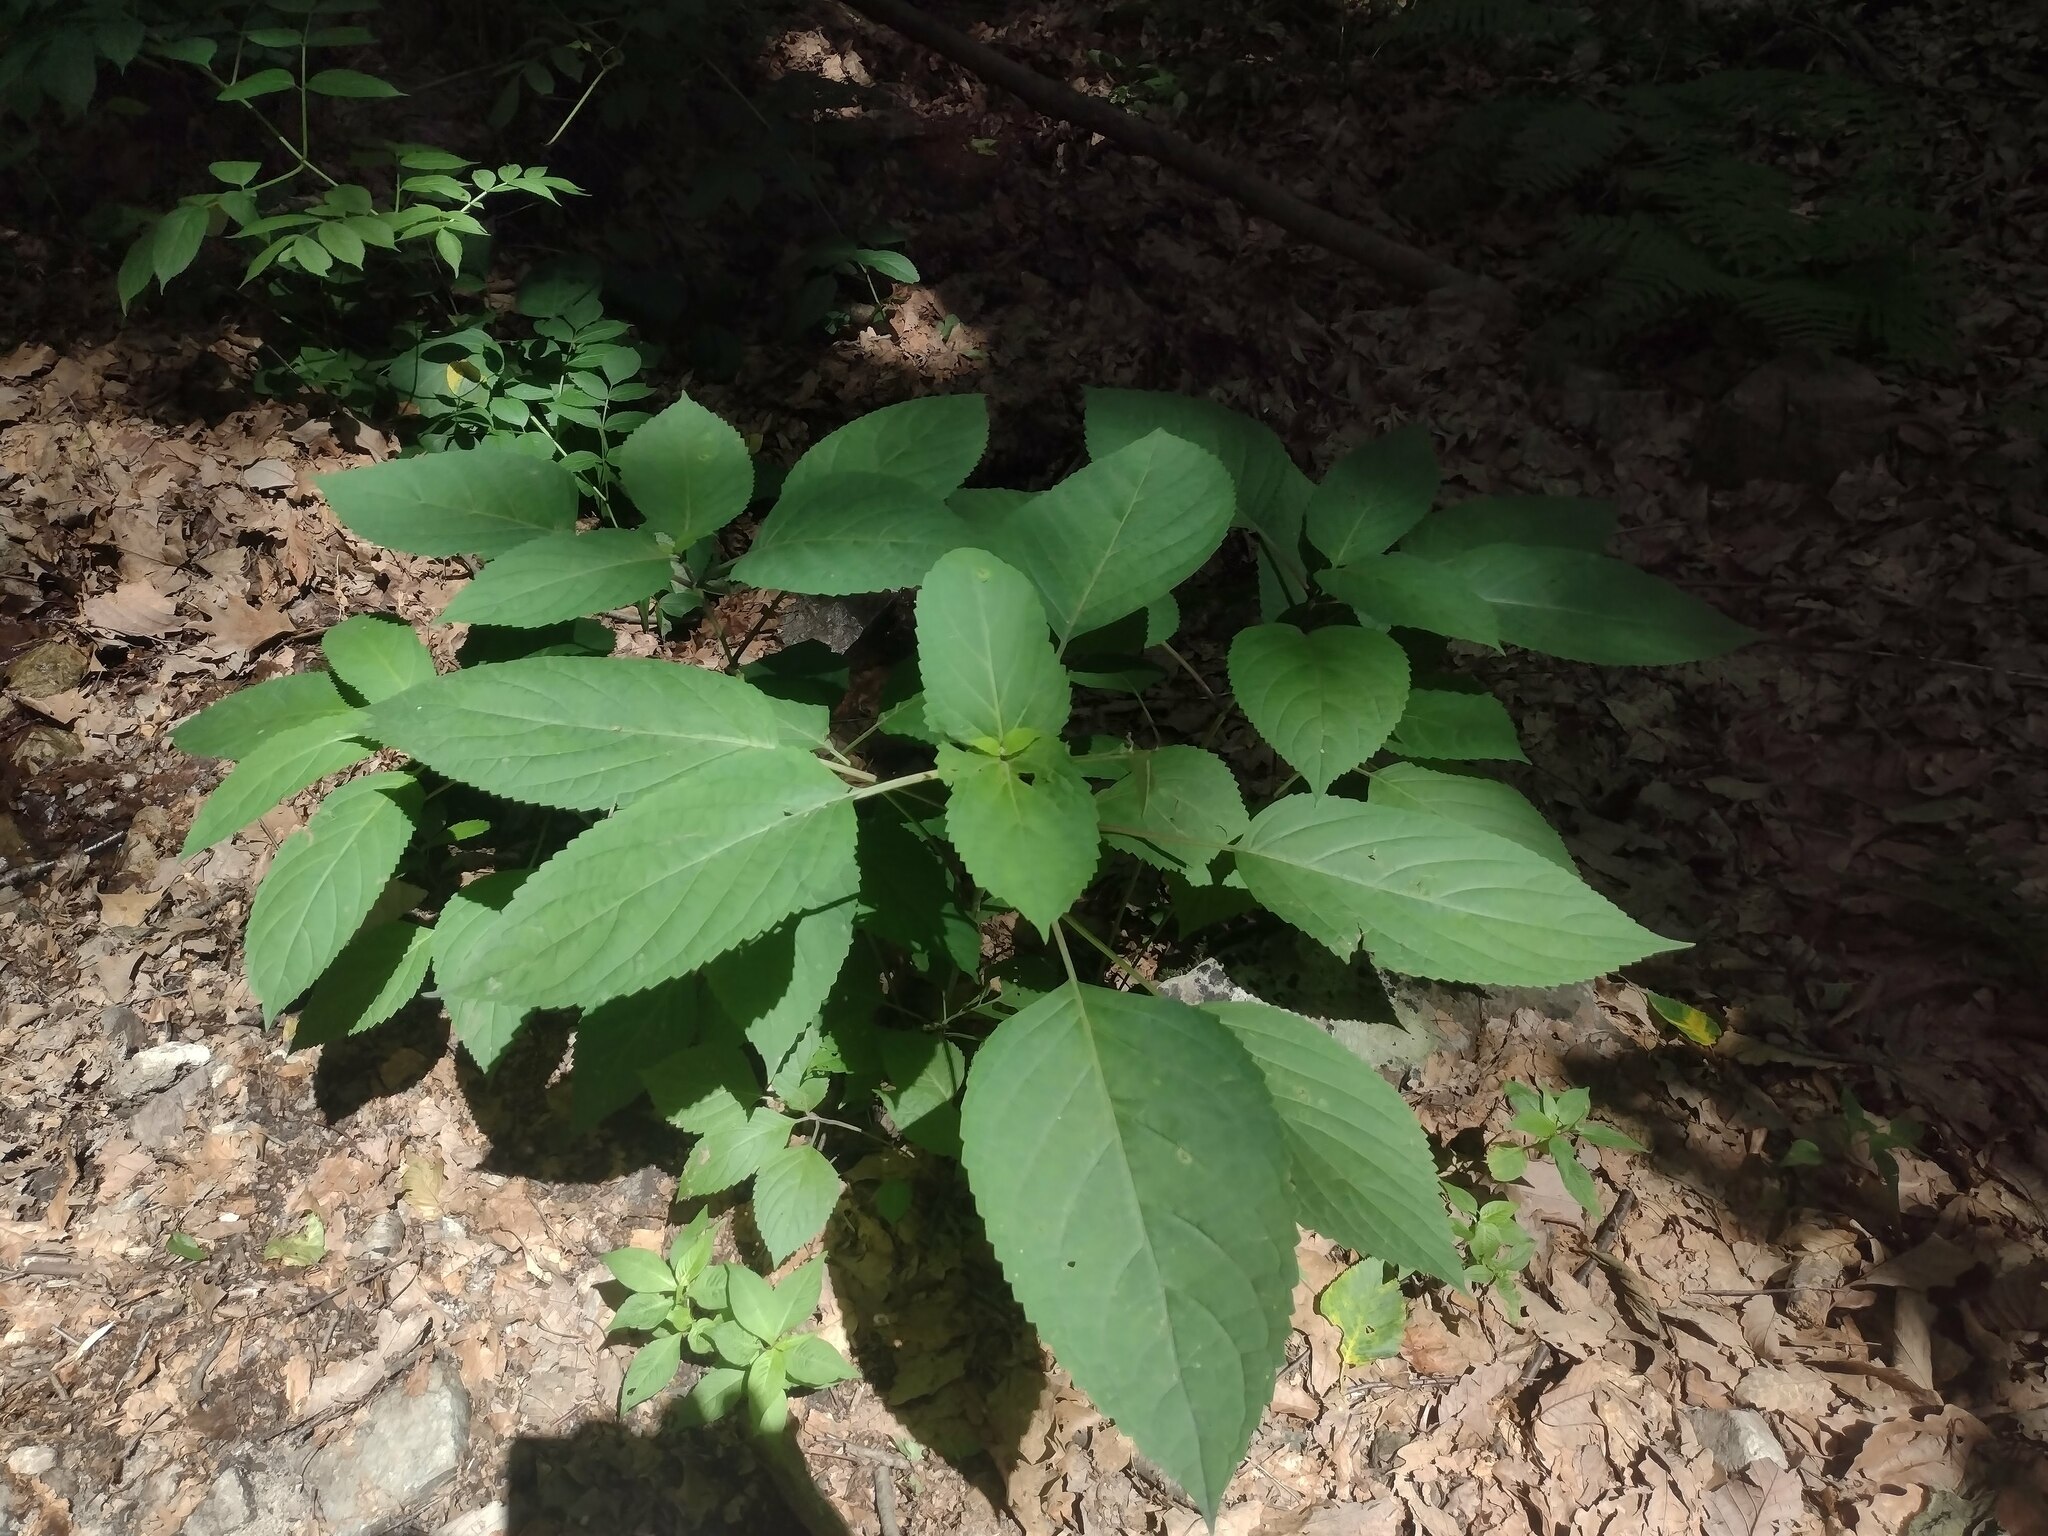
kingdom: Plantae
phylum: Tracheophyta
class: Magnoliopsida
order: Lamiales
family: Lamiaceae
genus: Collinsonia
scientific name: Collinsonia canadensis
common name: Northern horsebalm
